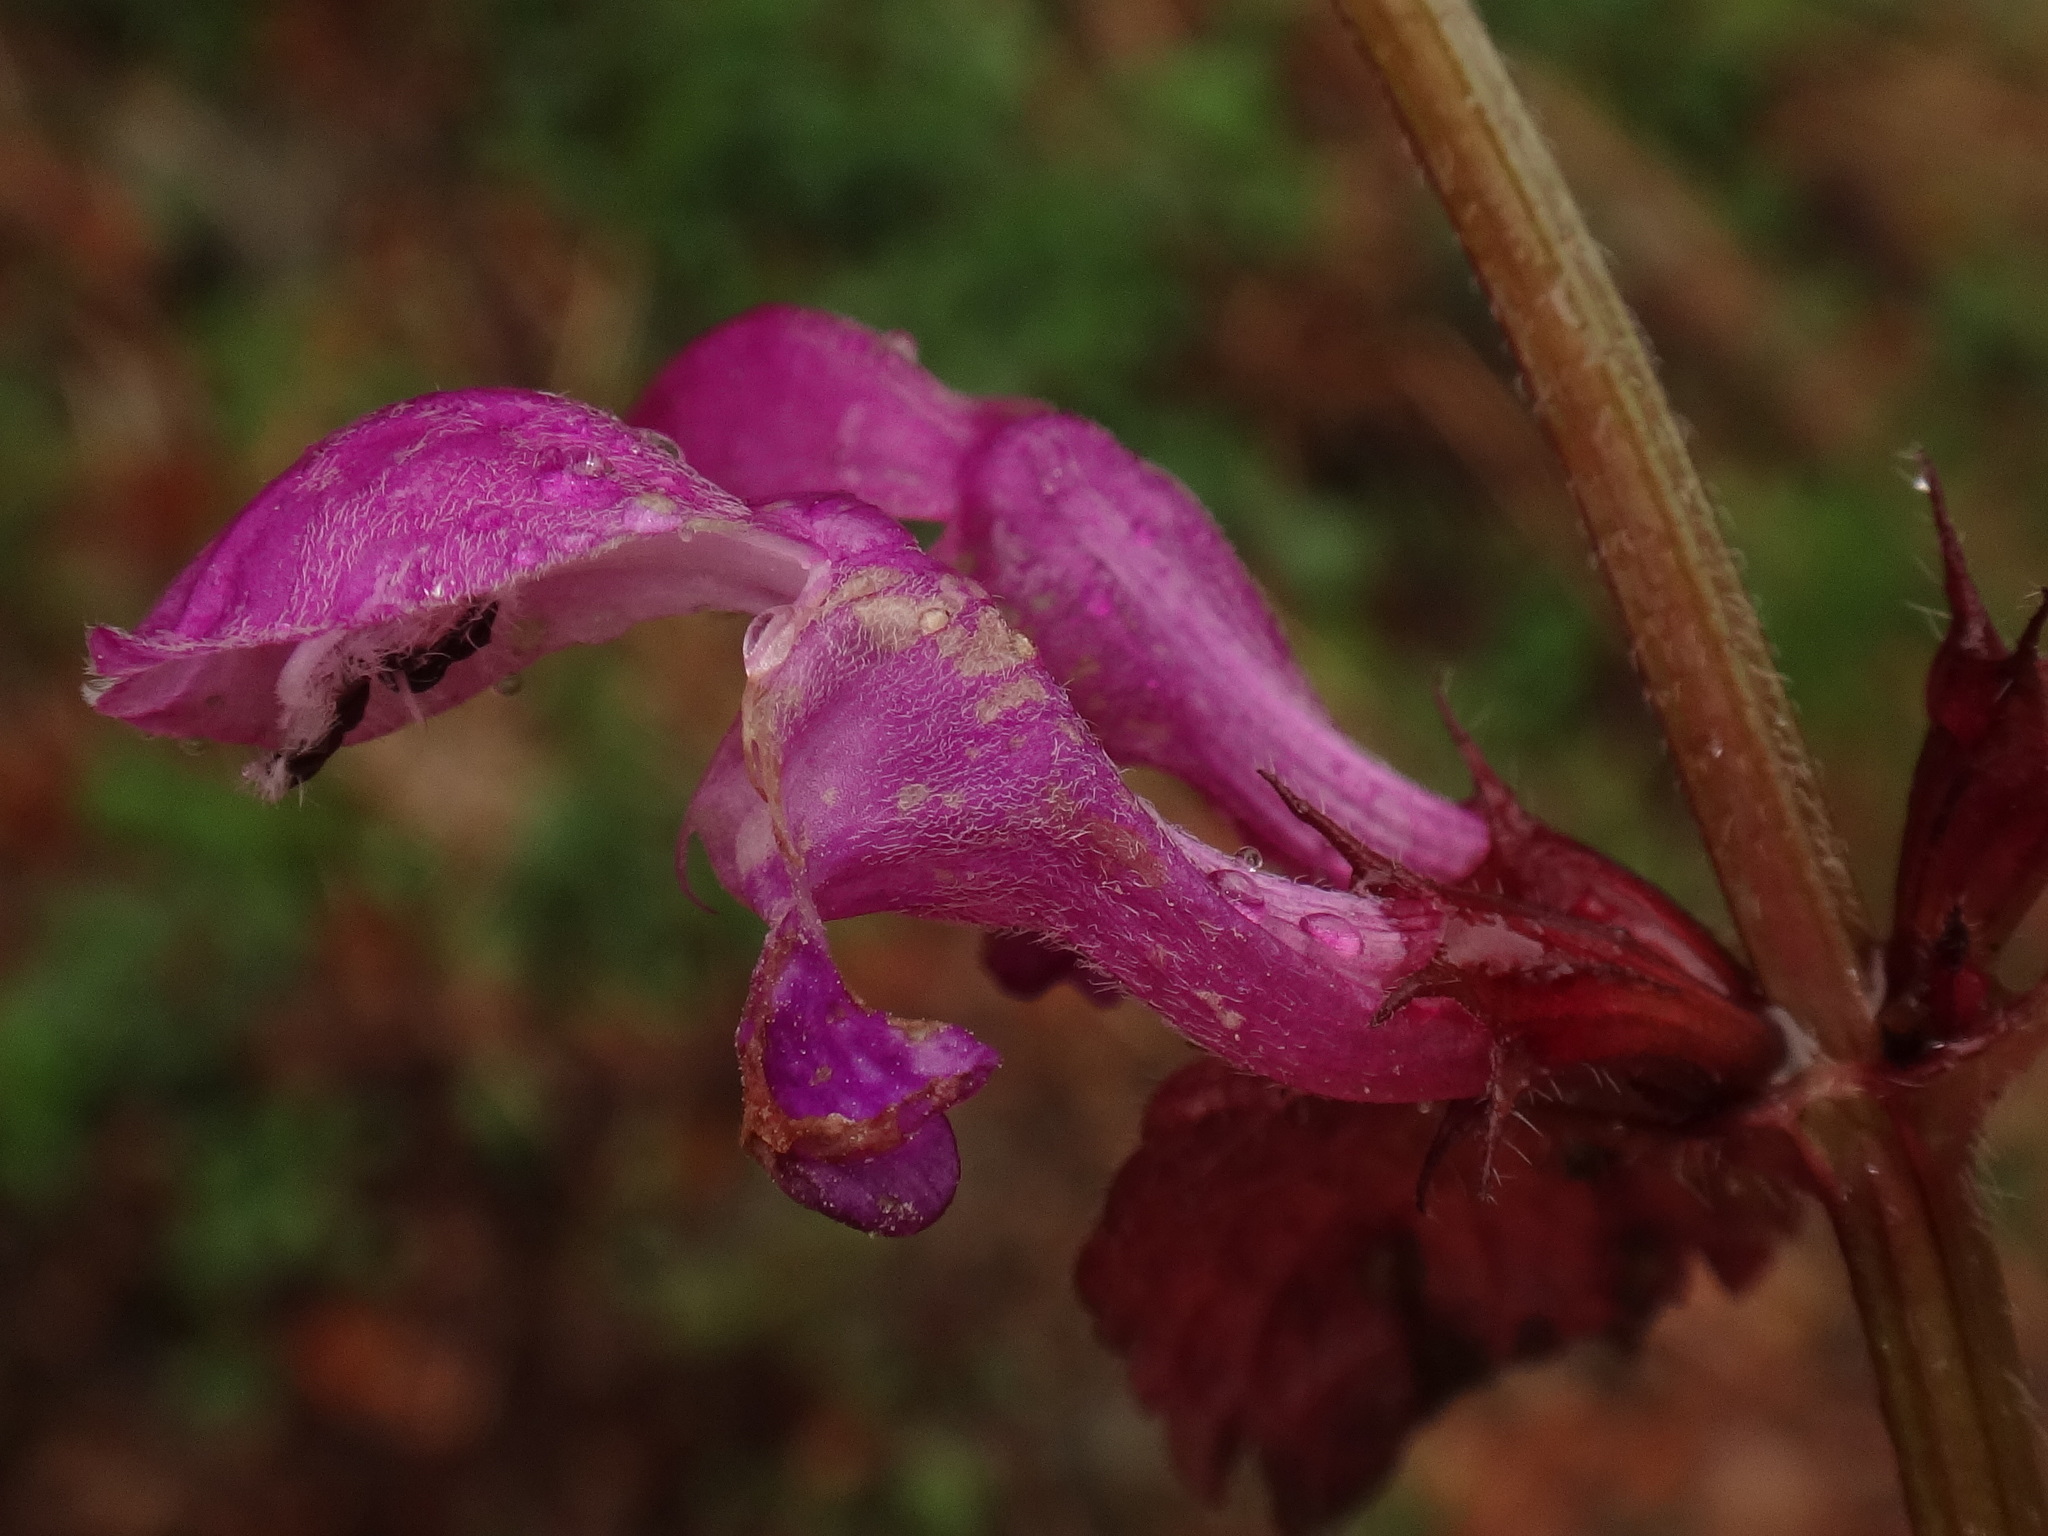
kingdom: Plantae
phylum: Tracheophyta
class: Magnoliopsida
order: Lamiales
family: Lamiaceae
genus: Lamium
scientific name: Lamium maculatum
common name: Spotted dead-nettle
